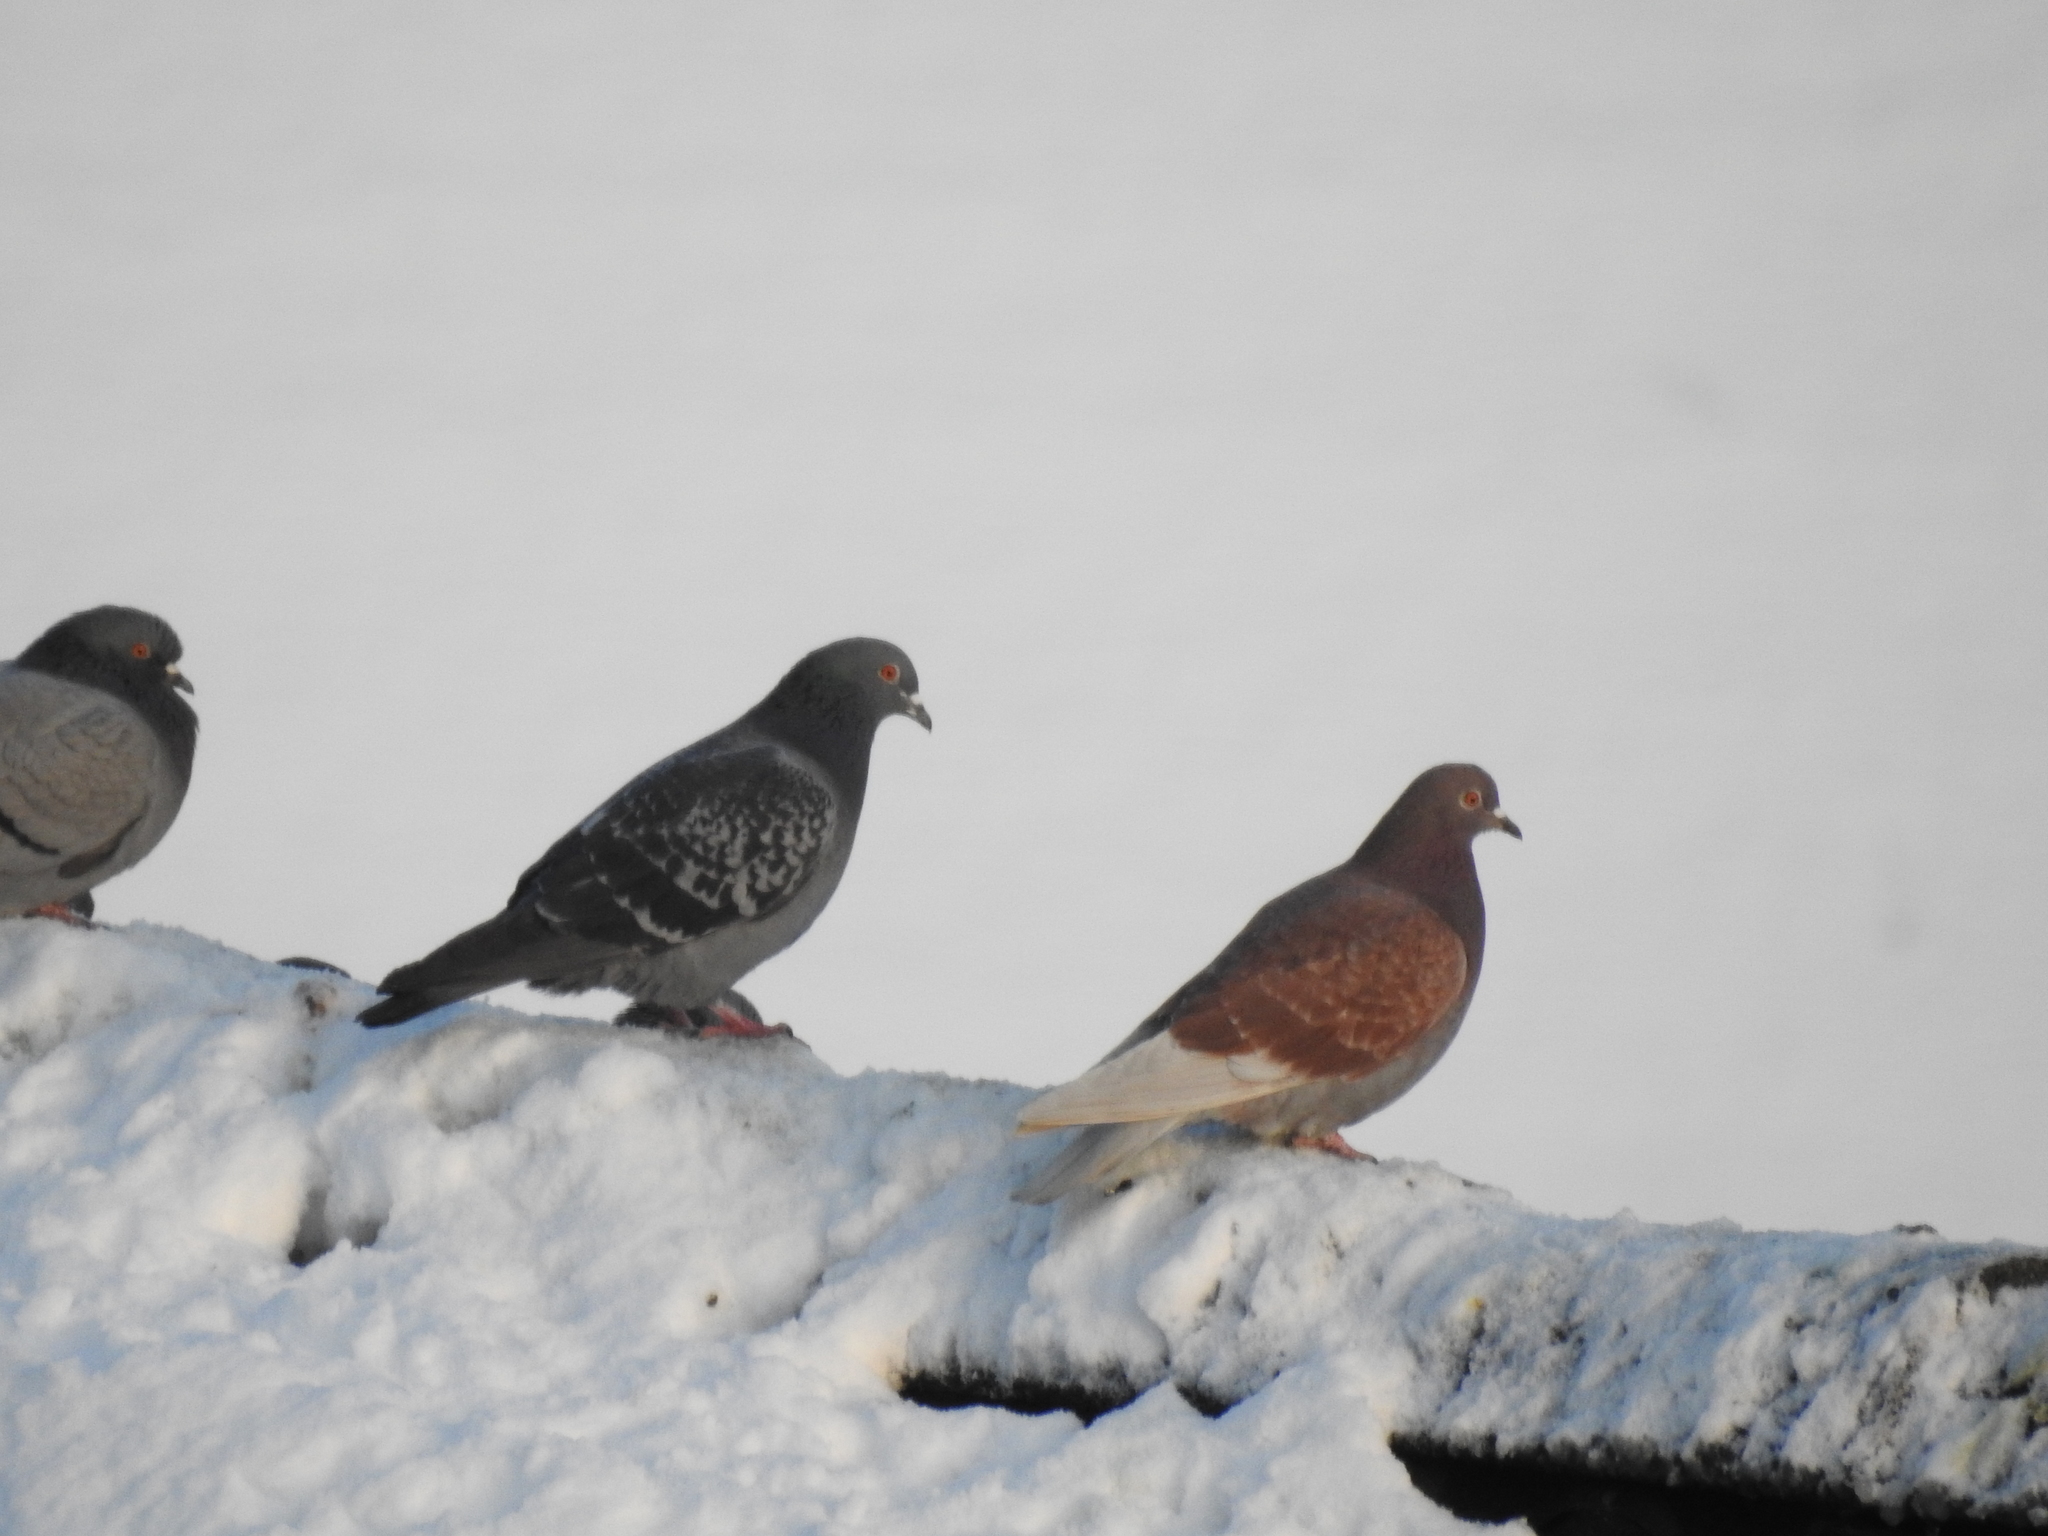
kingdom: Animalia
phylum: Chordata
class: Aves
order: Columbiformes
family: Columbidae
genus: Columba
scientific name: Columba livia
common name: Rock pigeon
